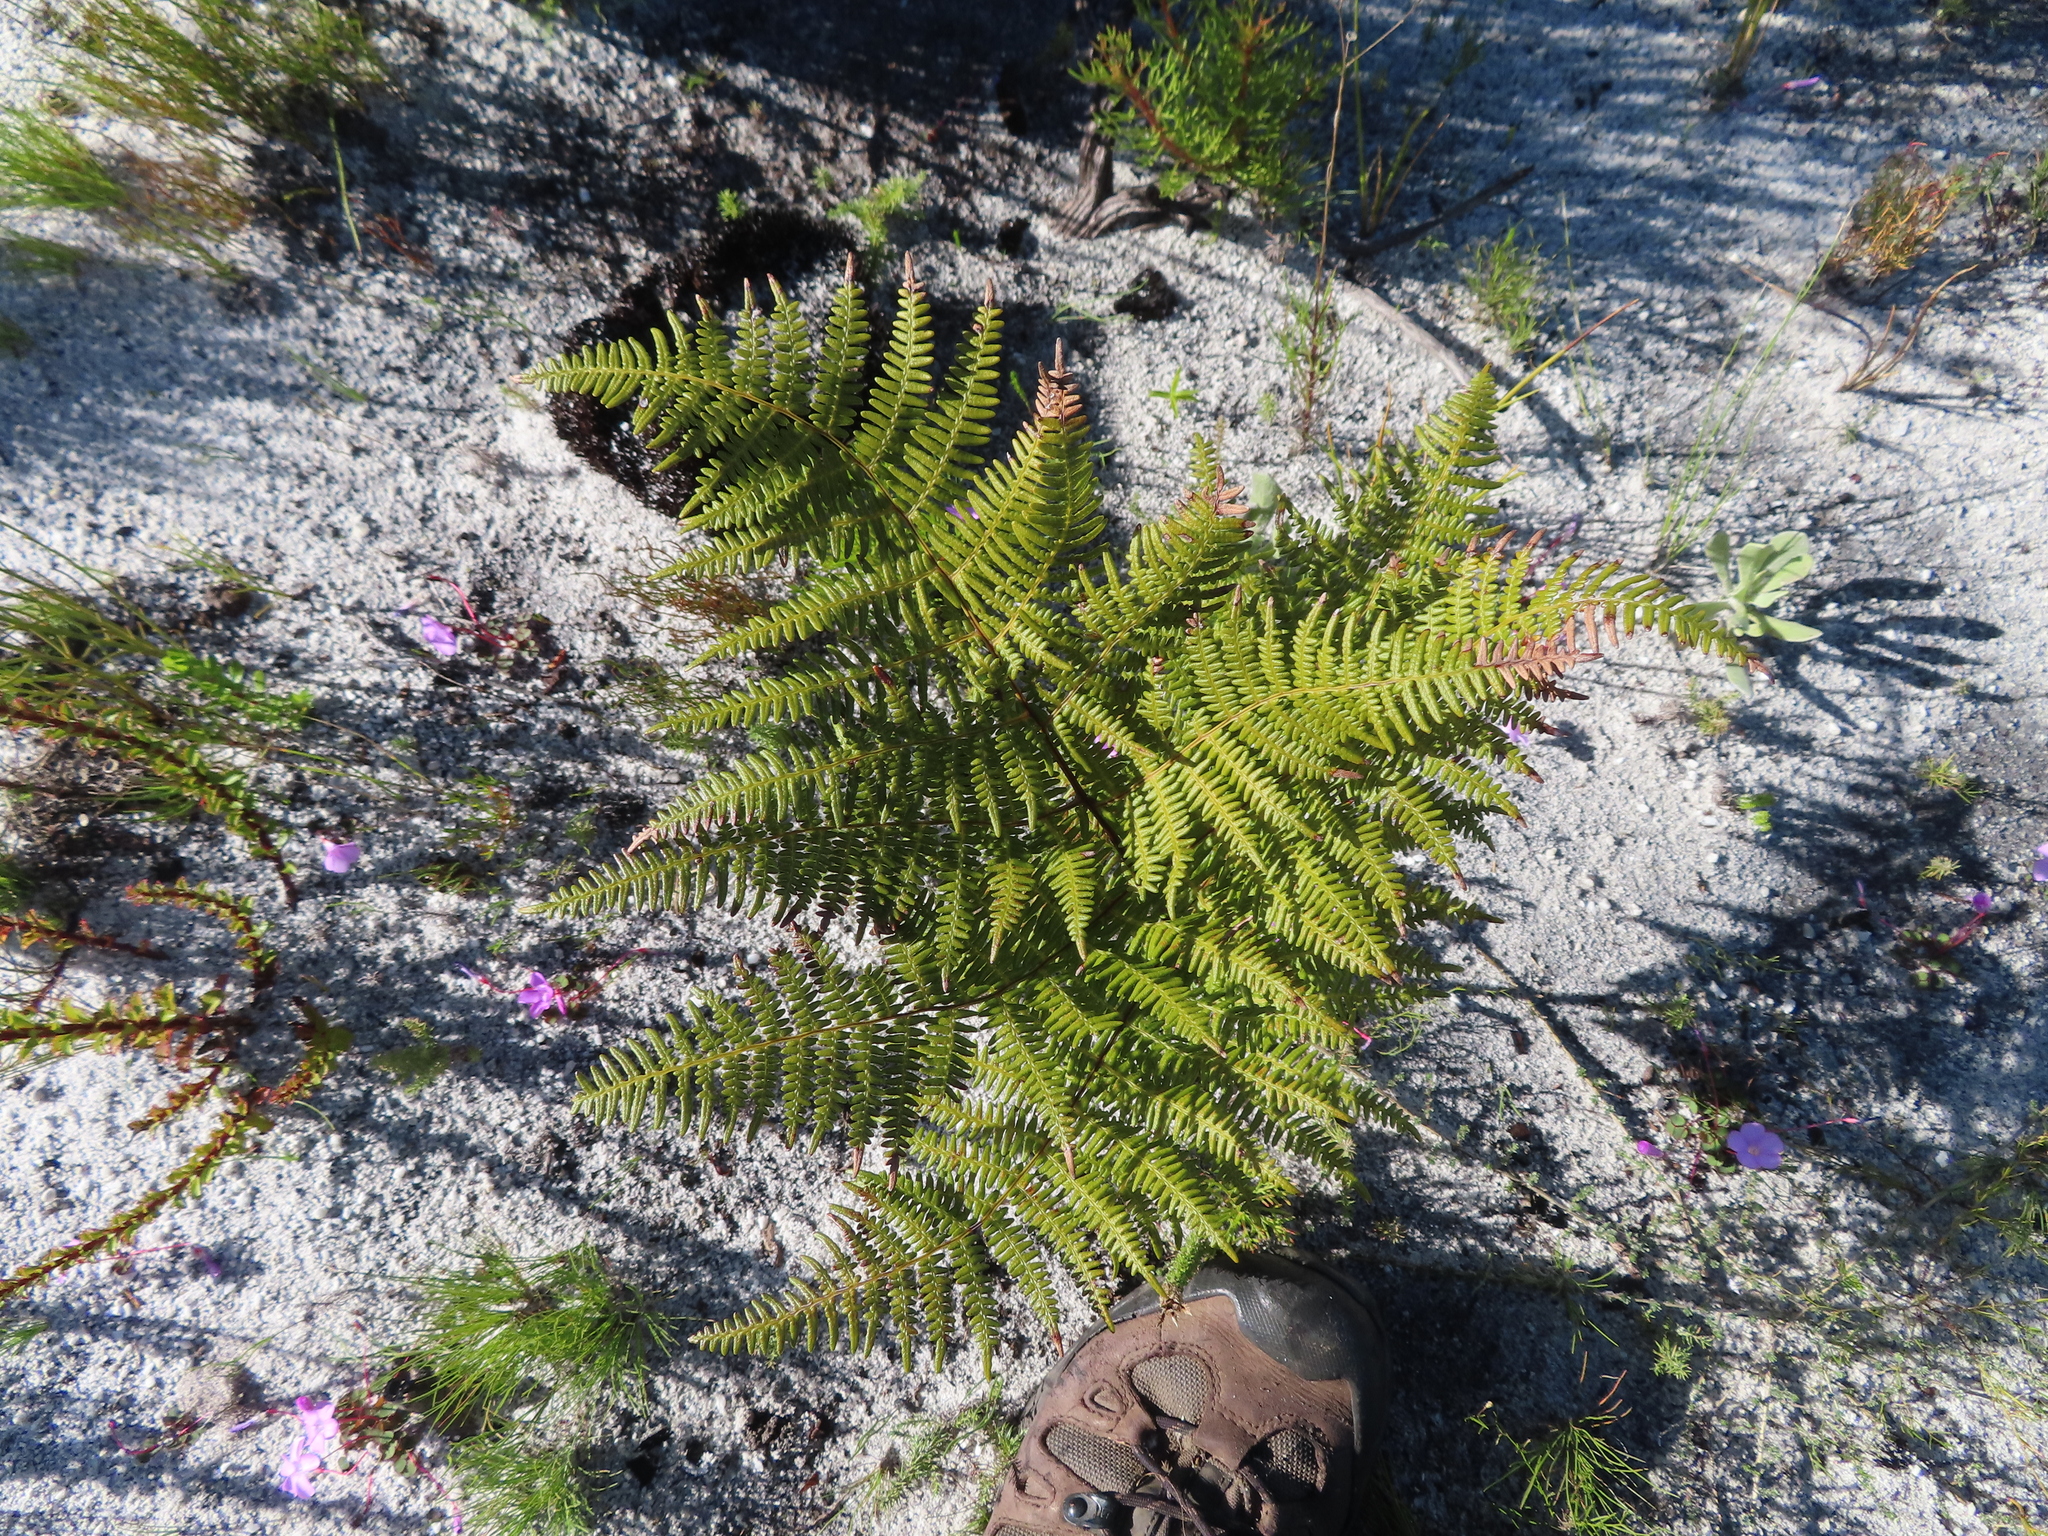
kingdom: Plantae
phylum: Tracheophyta
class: Polypodiopsida
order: Polypodiales
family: Dennstaedtiaceae
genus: Pteridium
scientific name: Pteridium aquilinum
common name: Bracken
